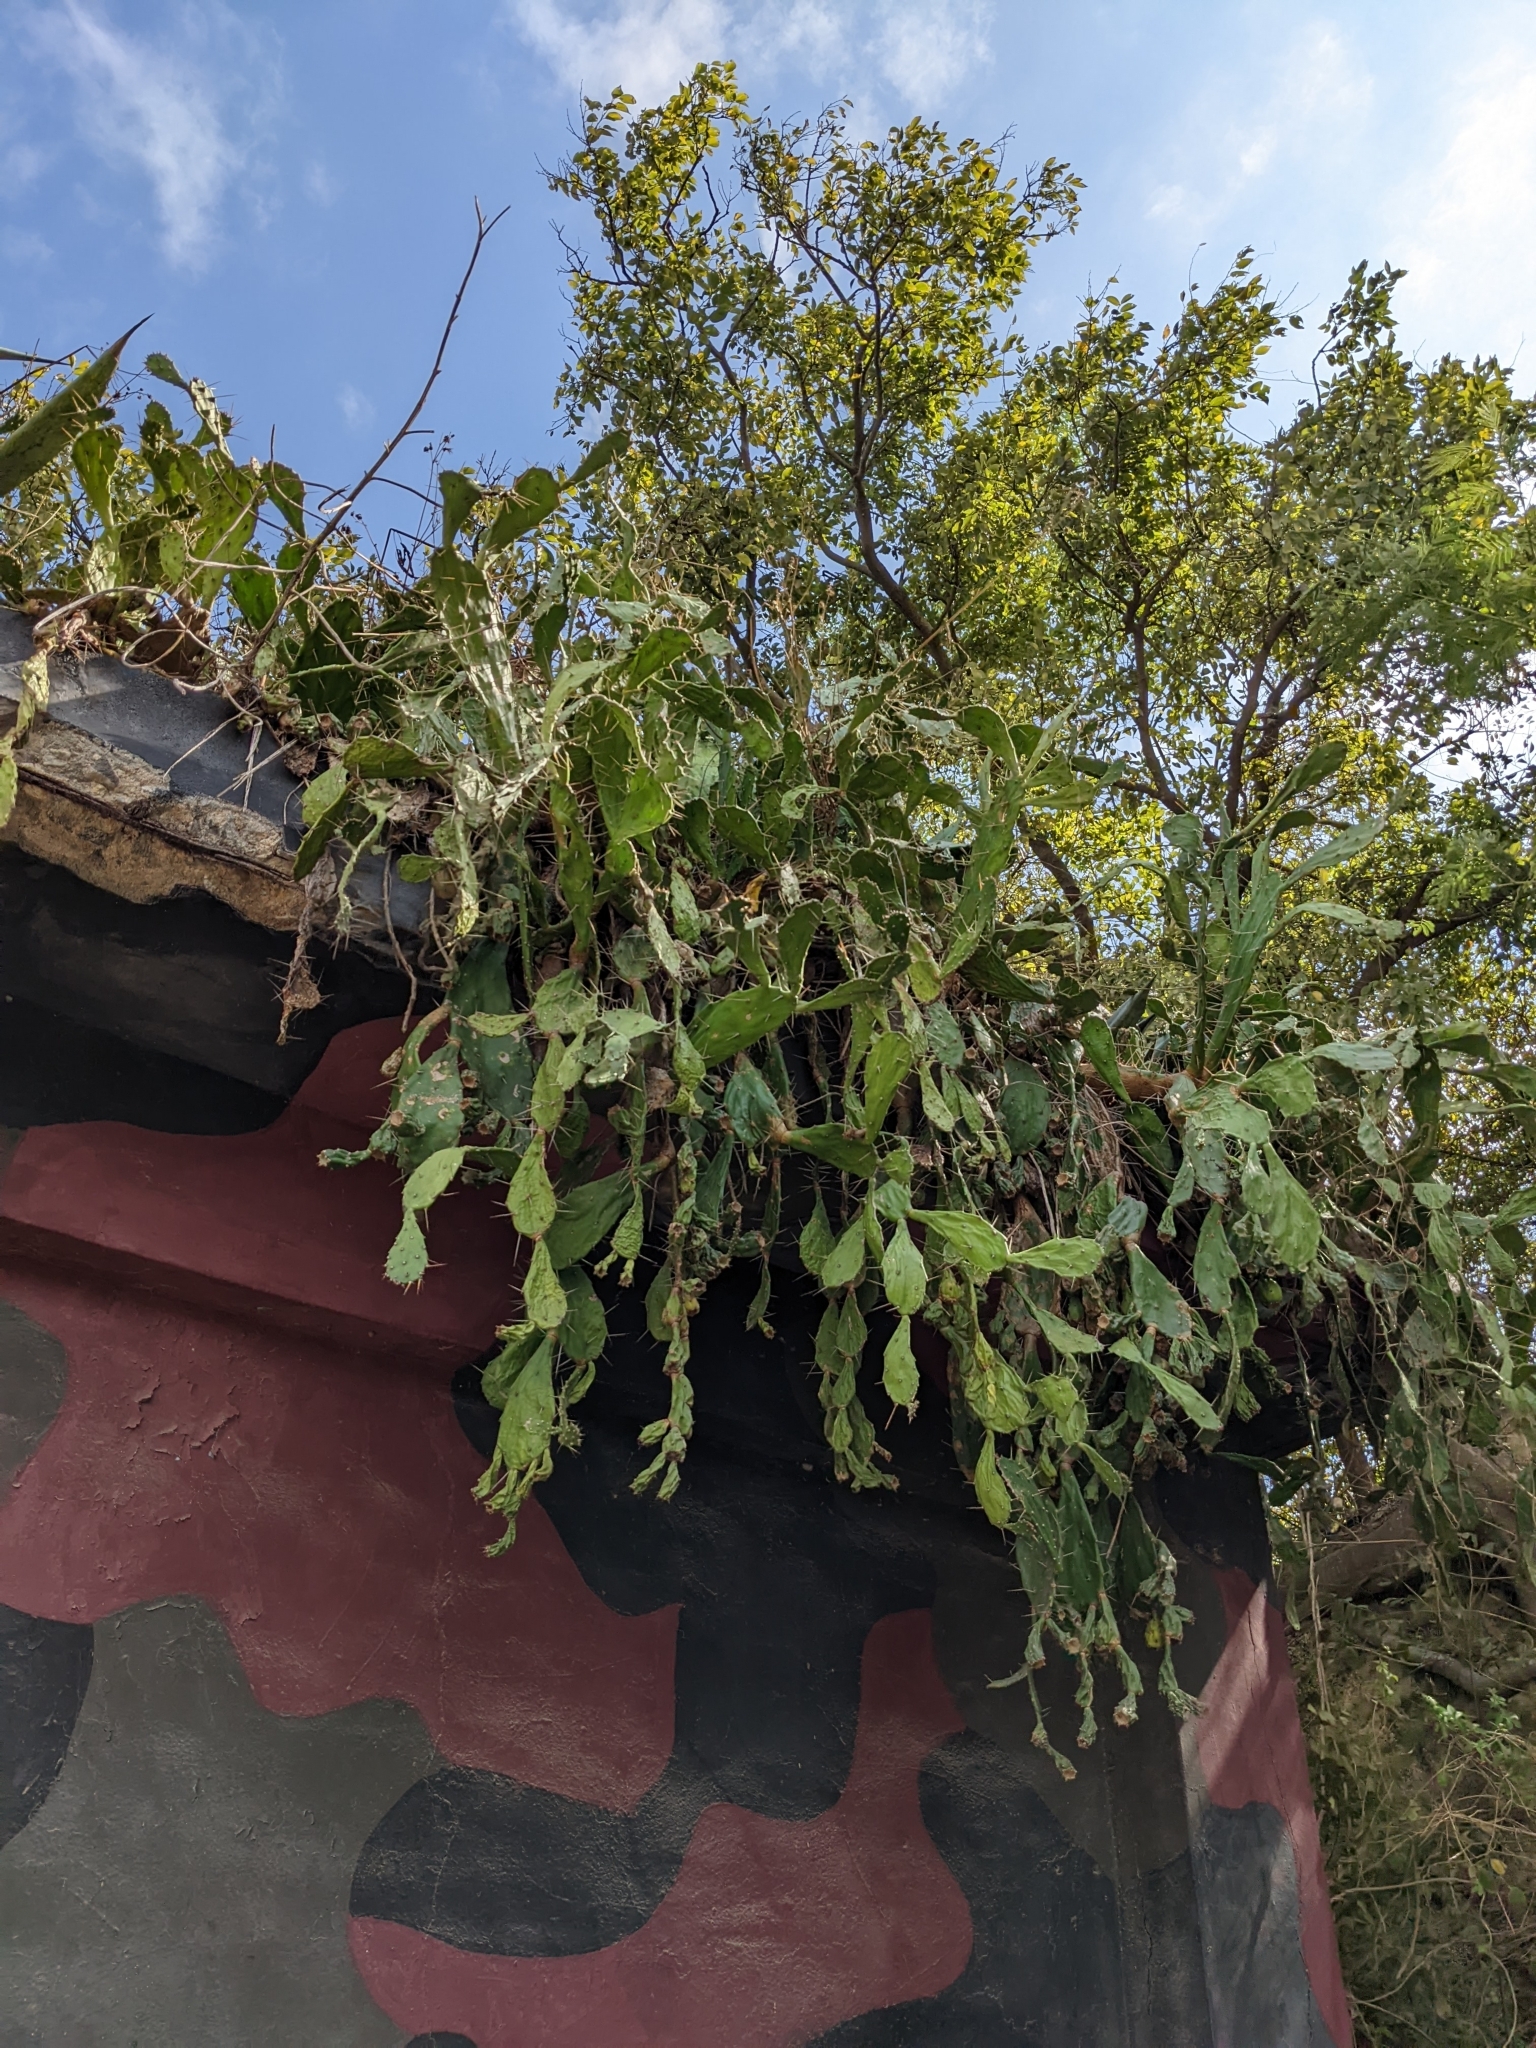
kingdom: Plantae
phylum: Tracheophyta
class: Magnoliopsida
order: Caryophyllales
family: Cactaceae
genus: Opuntia
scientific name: Opuntia monacantha
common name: Common pricklypear
